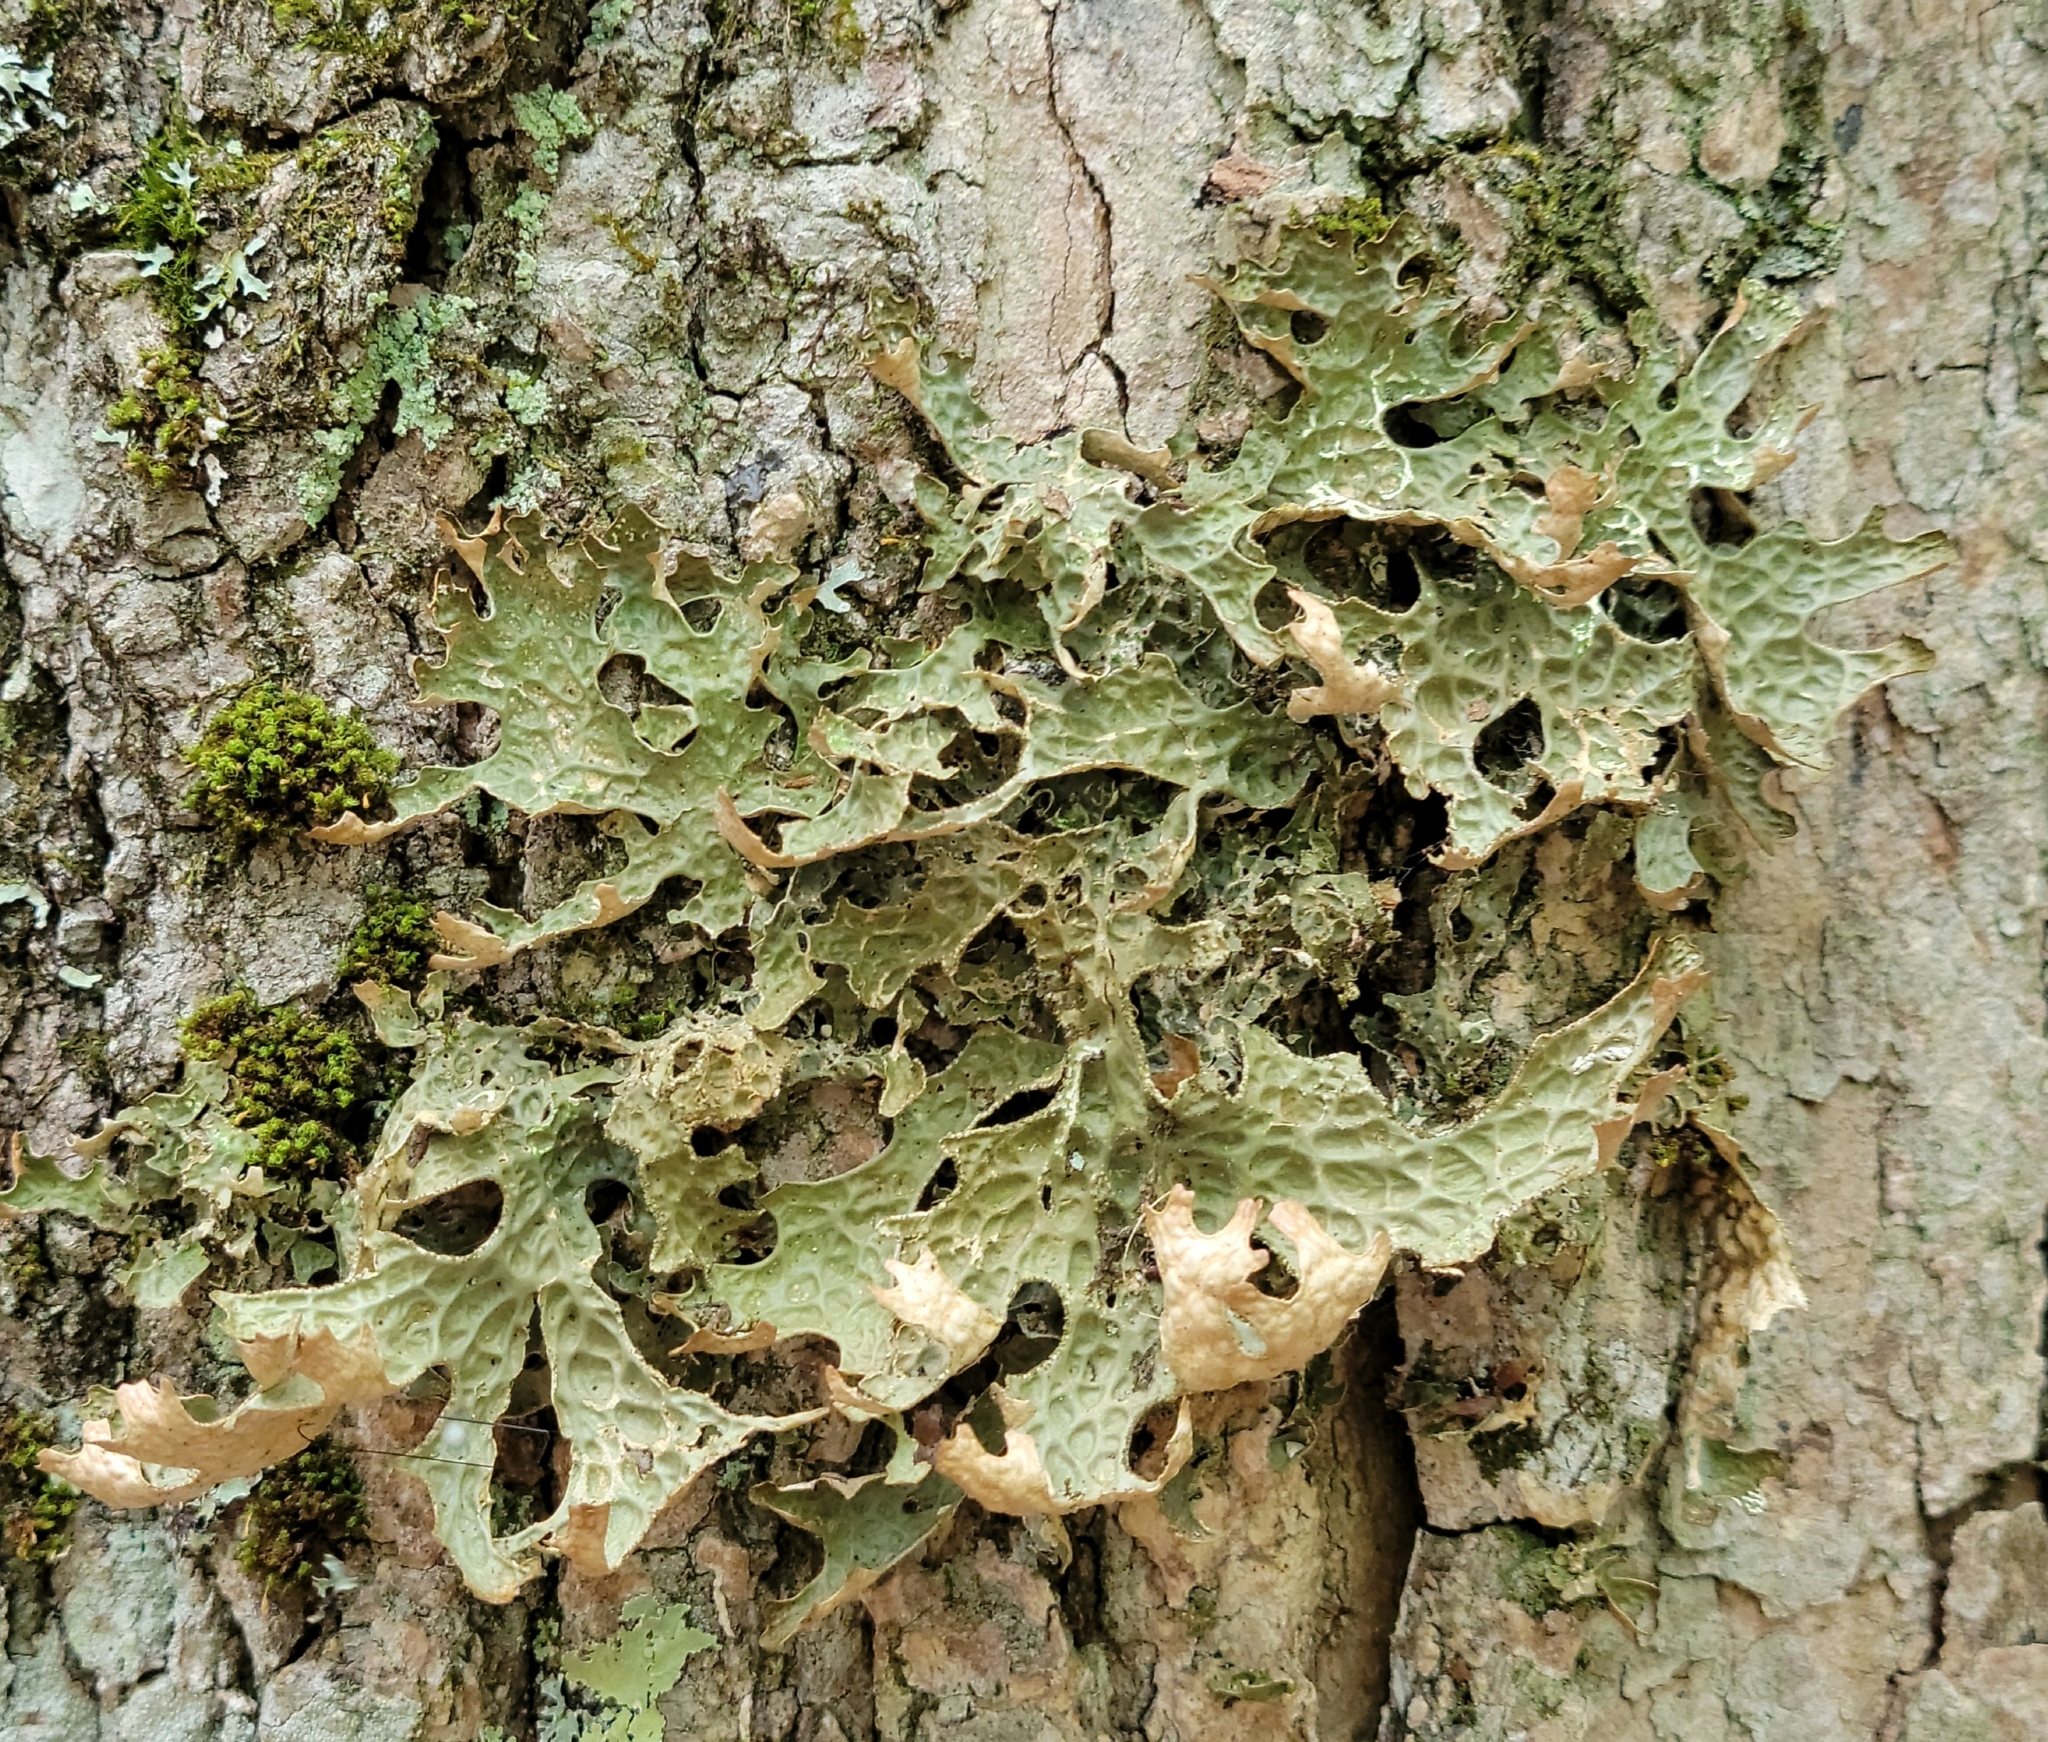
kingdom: Fungi
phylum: Ascomycota
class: Lecanoromycetes
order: Peltigerales
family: Lobariaceae
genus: Lobaria
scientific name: Lobaria pulmonaria
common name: Lungwort
